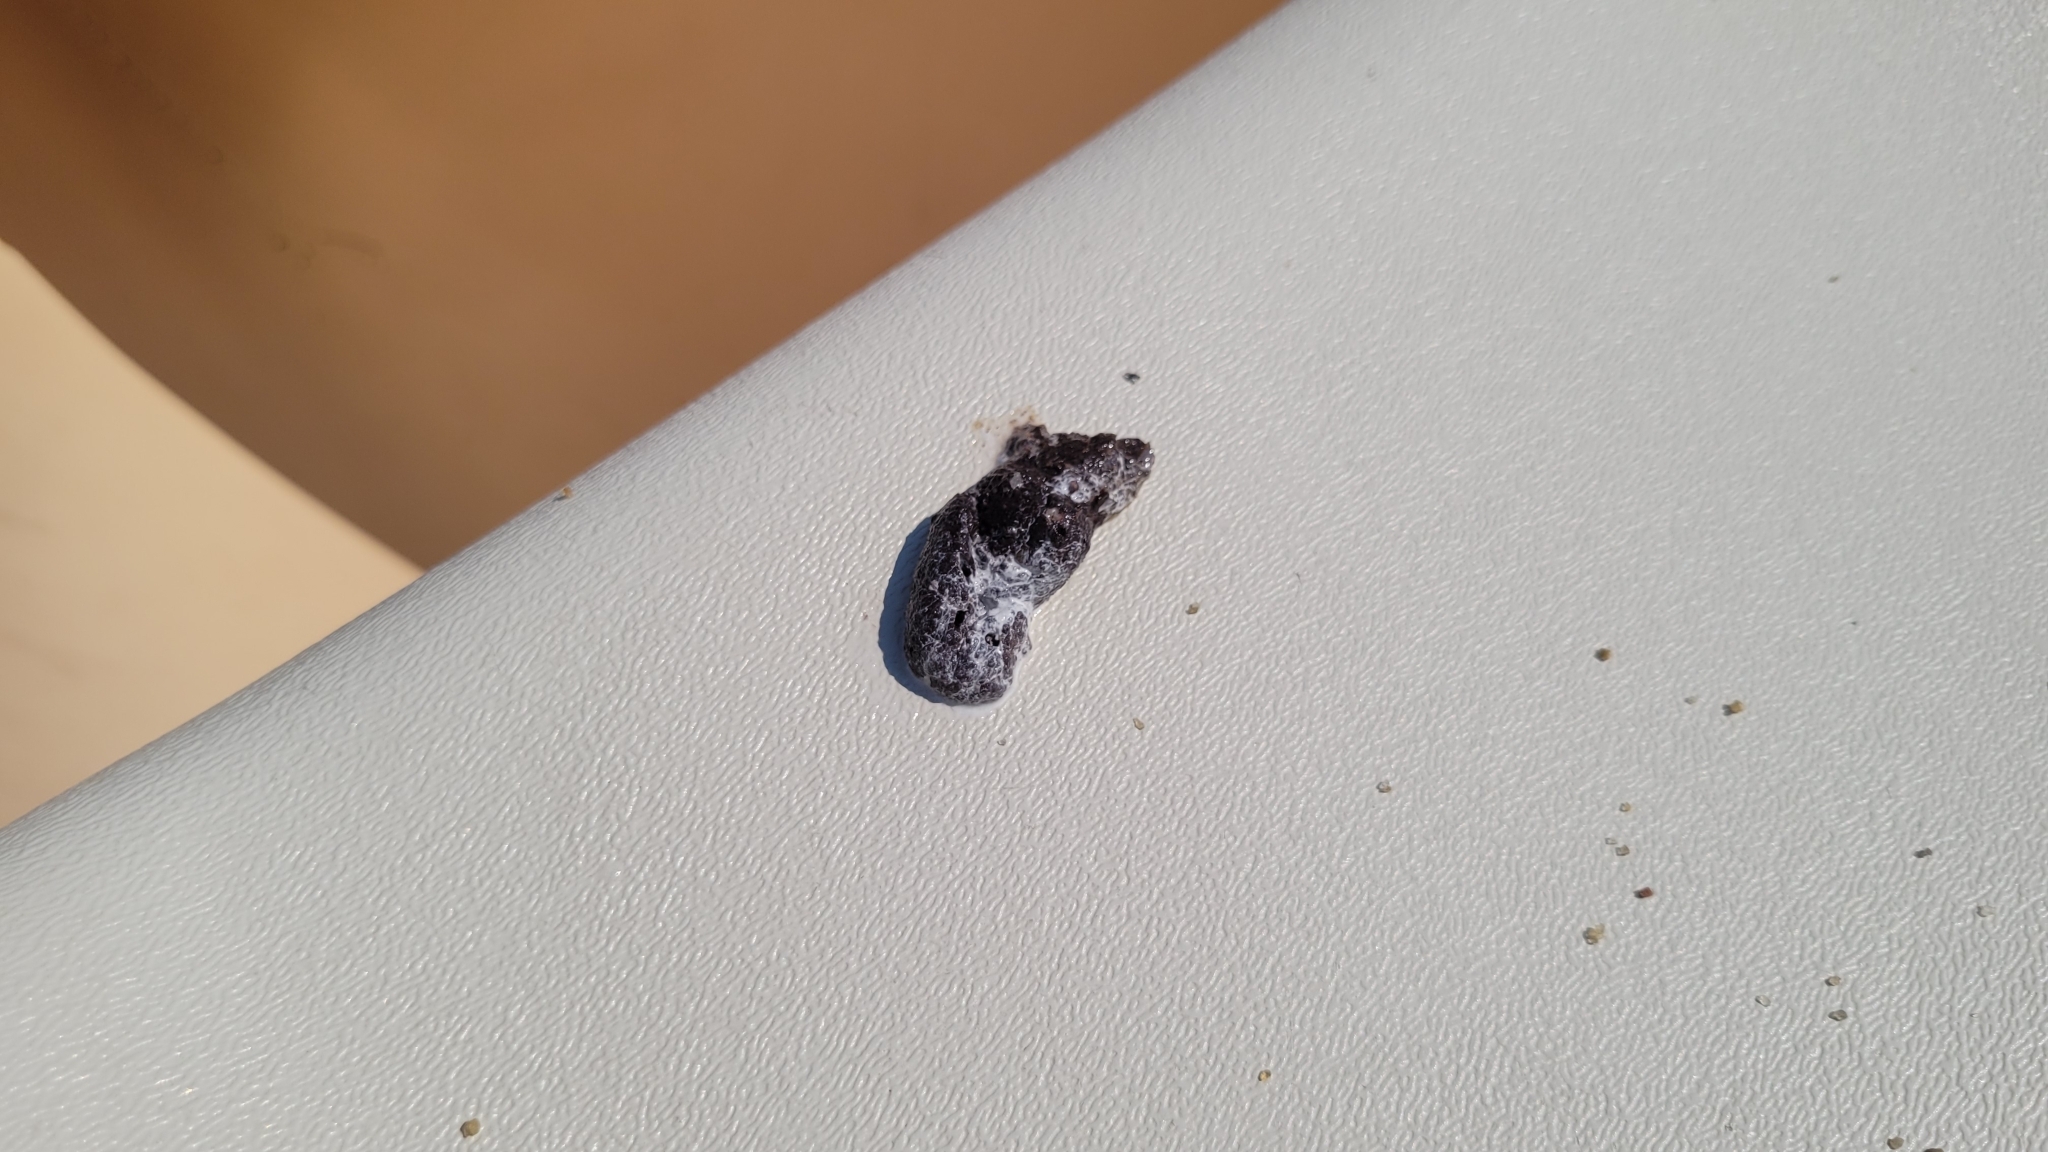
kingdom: Animalia
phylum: Chordata
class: Aves
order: Charadriiformes
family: Laridae
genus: Larus
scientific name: Larus argentatus
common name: Herring gull
